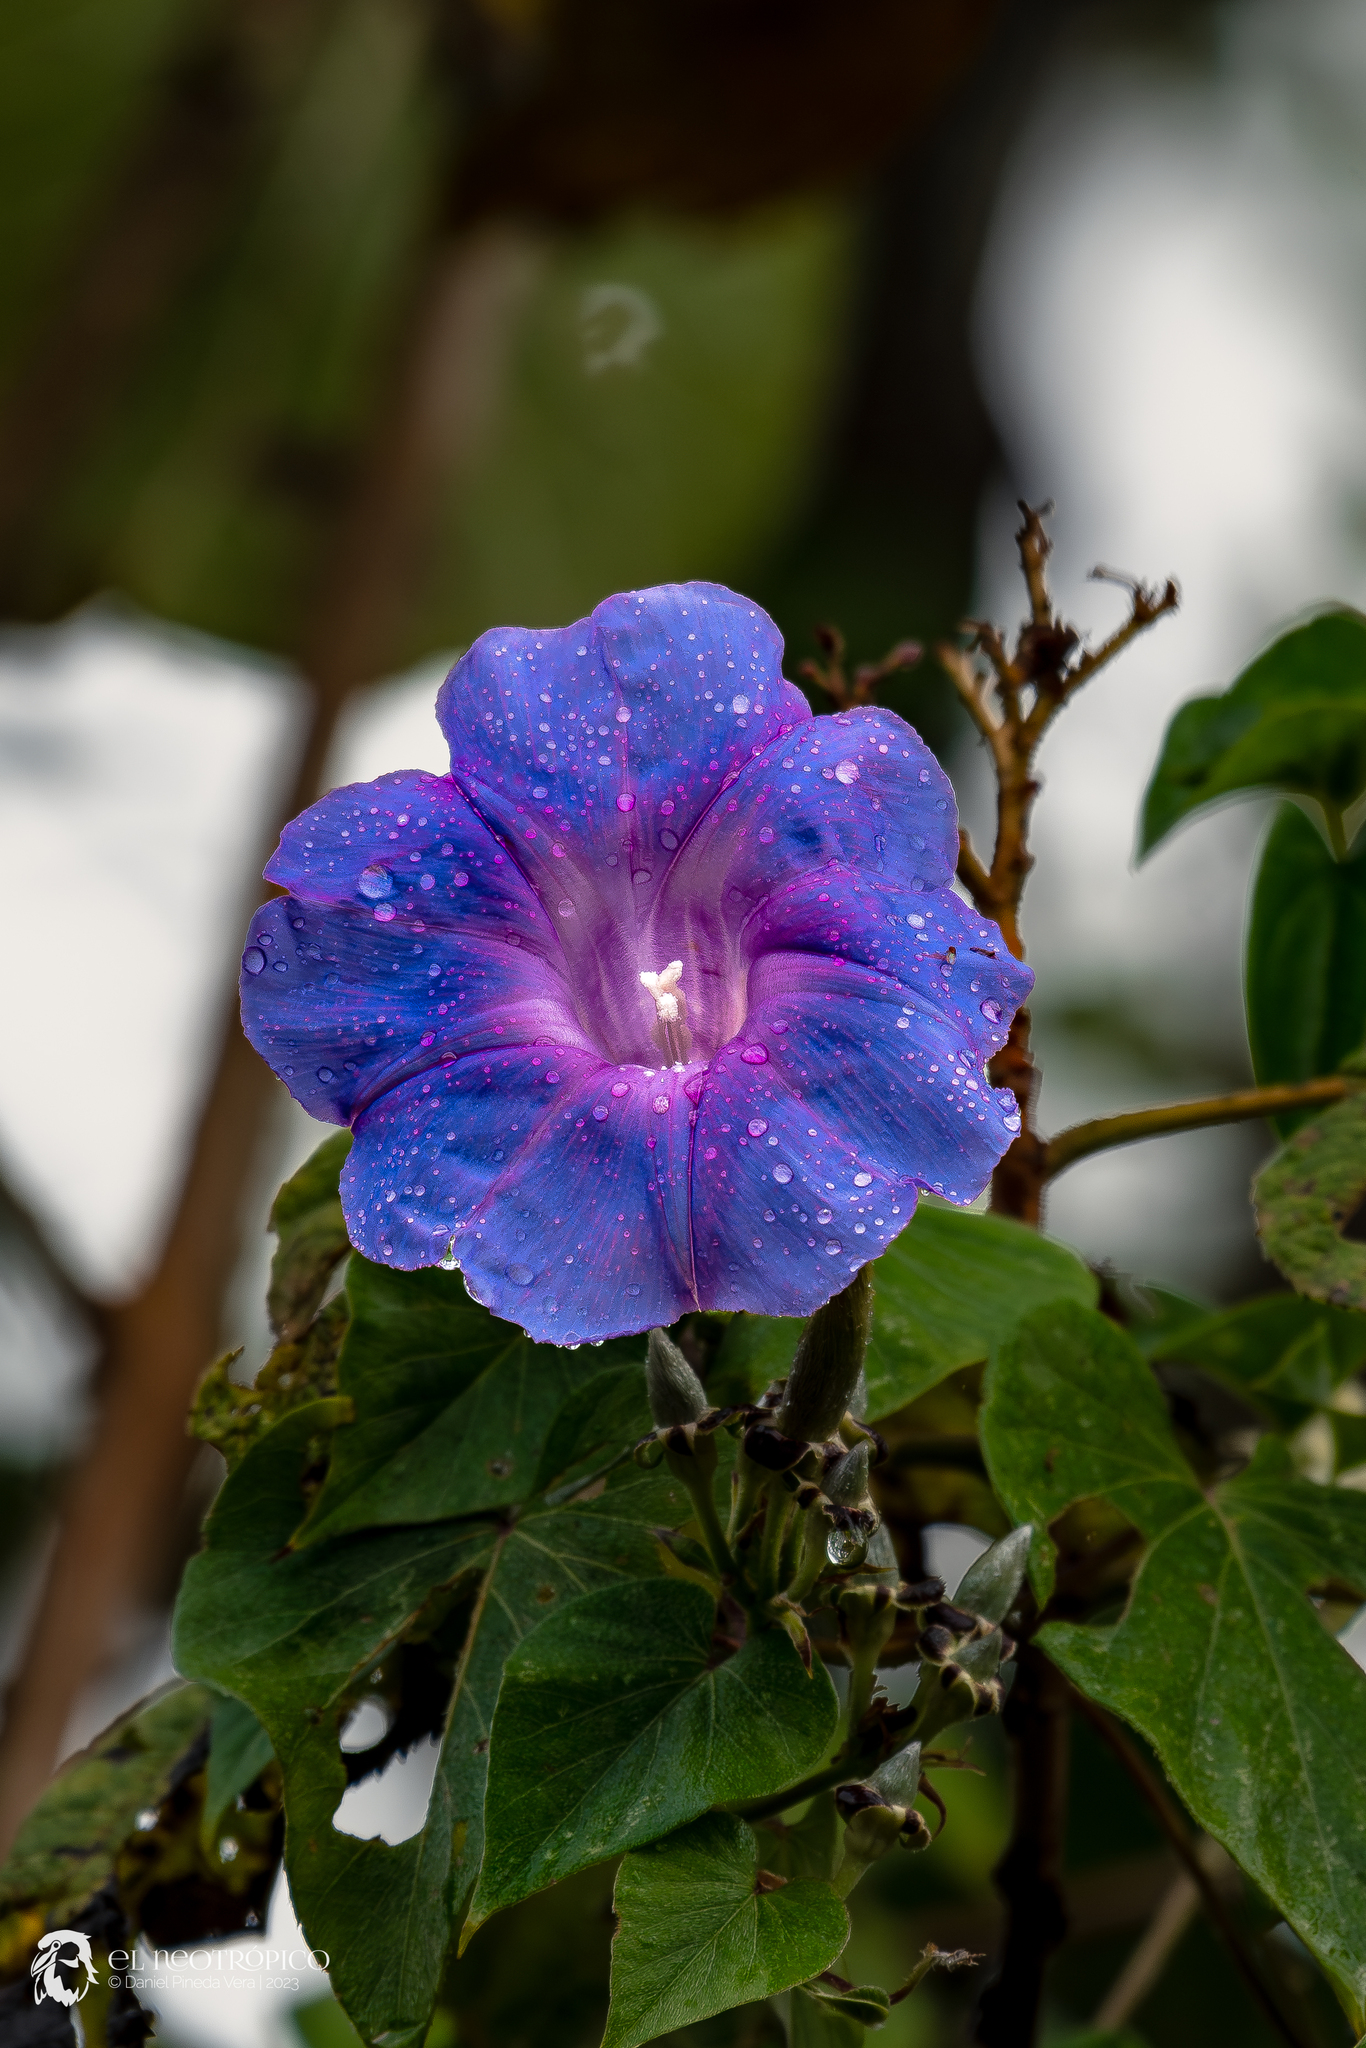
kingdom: Plantae
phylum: Tracheophyta
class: Magnoliopsida
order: Solanales
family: Convolvulaceae
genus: Ipomoea
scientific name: Ipomoea leucotricha
